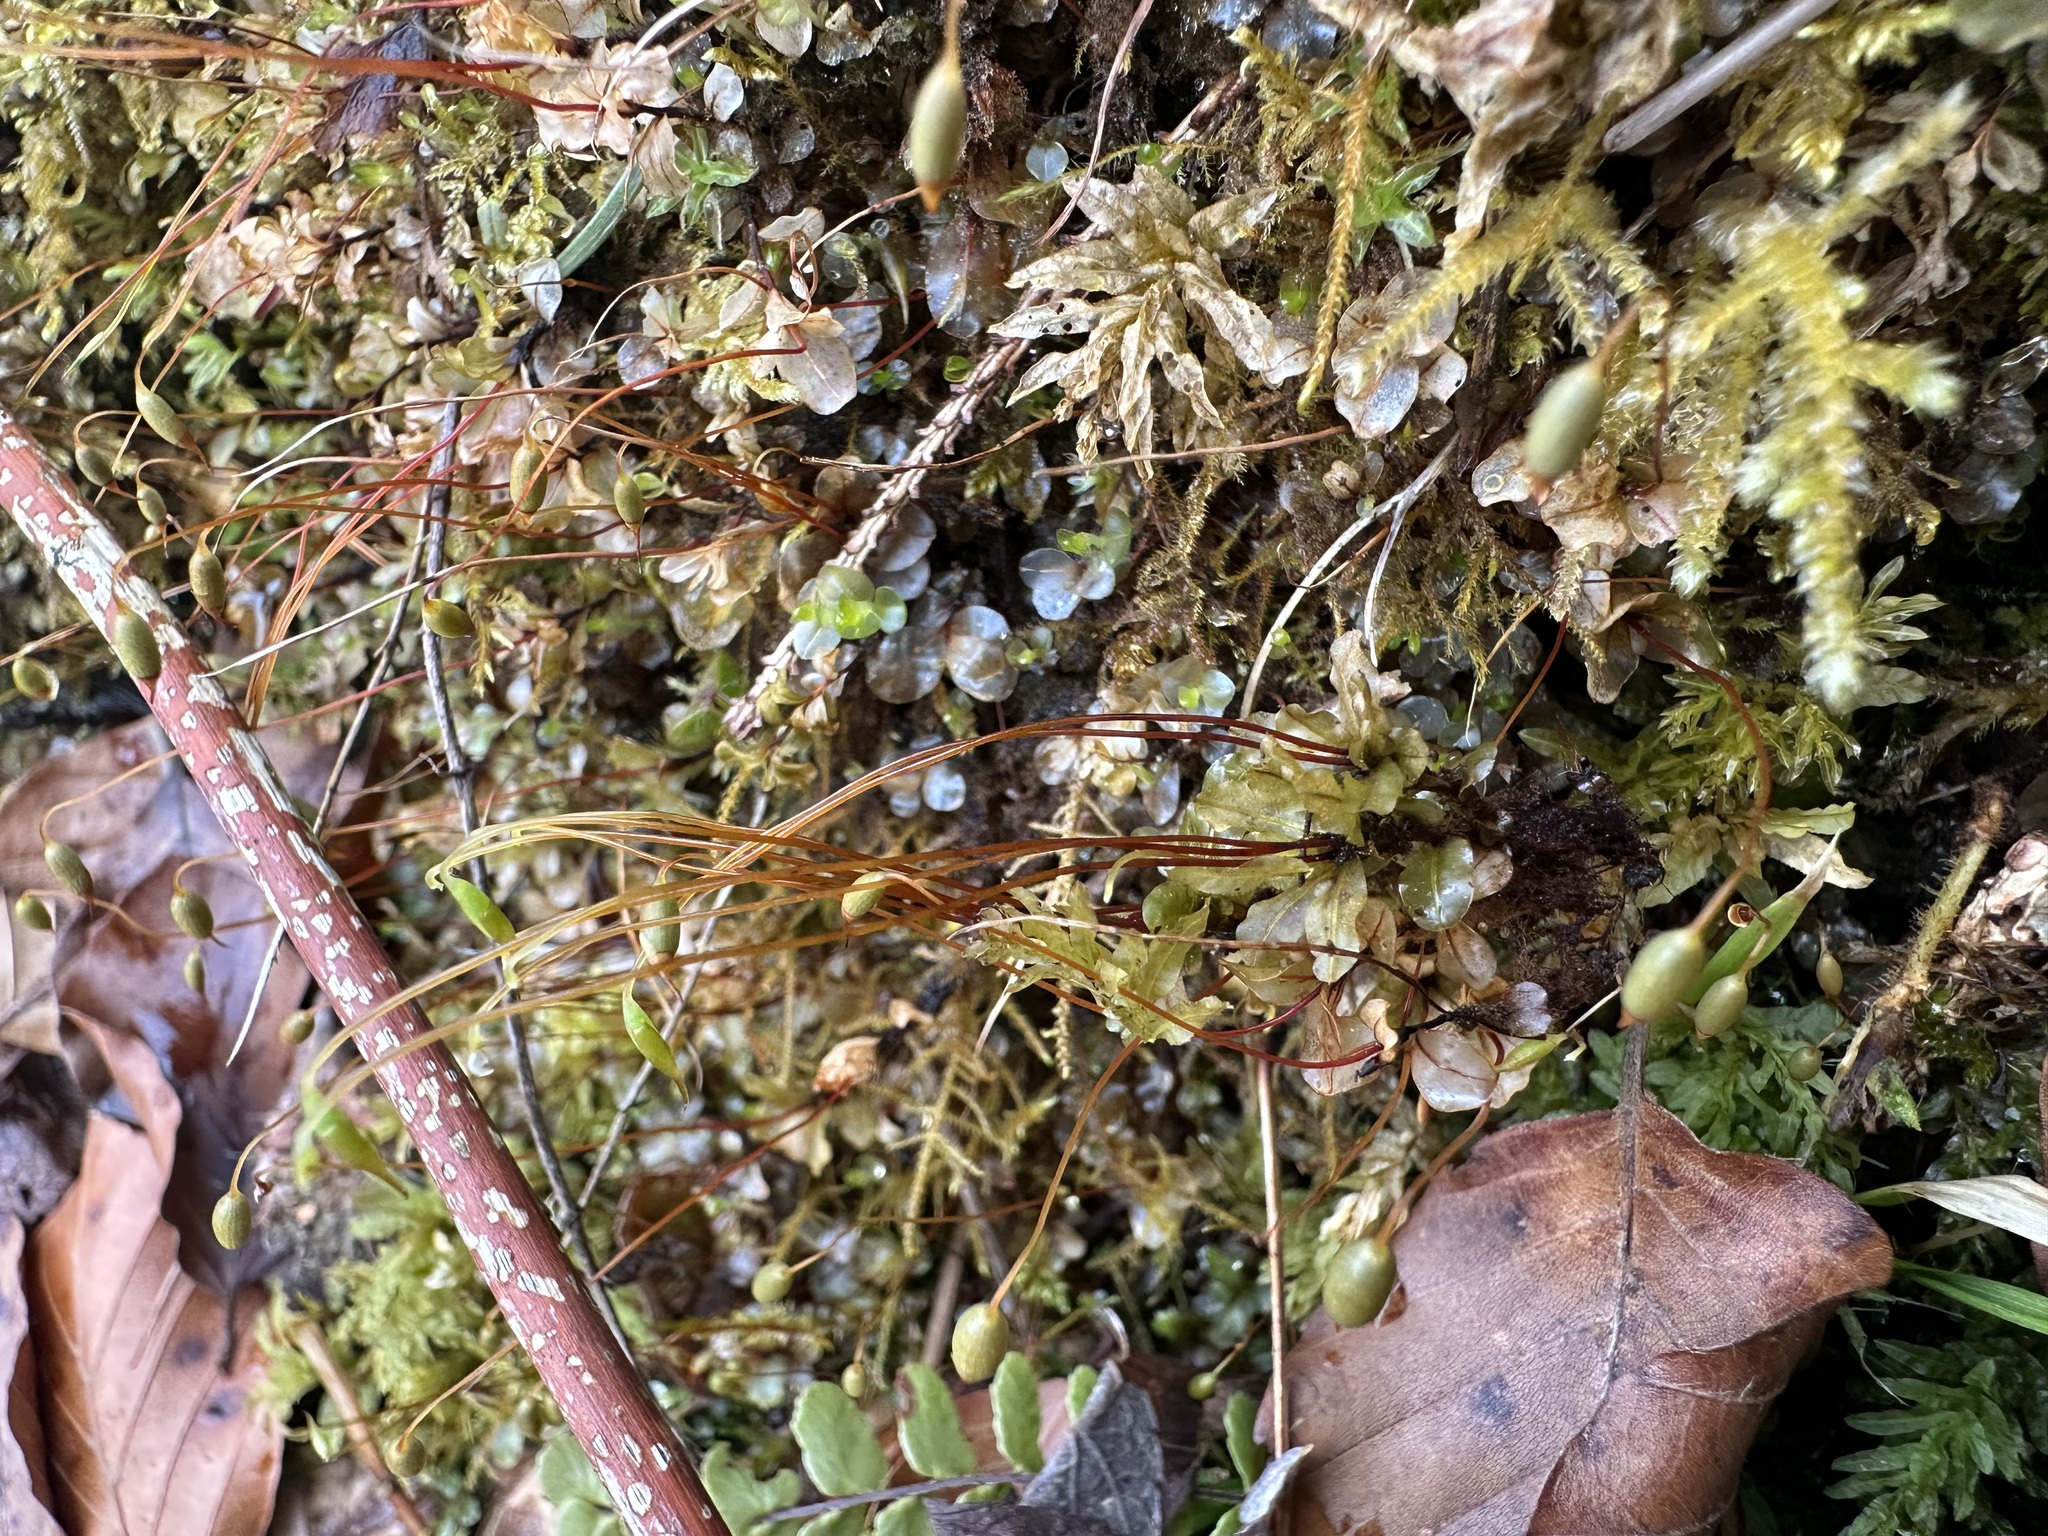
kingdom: Plantae
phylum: Bryophyta
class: Bryopsida
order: Bryales
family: Mniaceae
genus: Rhizomnium
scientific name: Rhizomnium punctatum
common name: Dotted leafy moss
